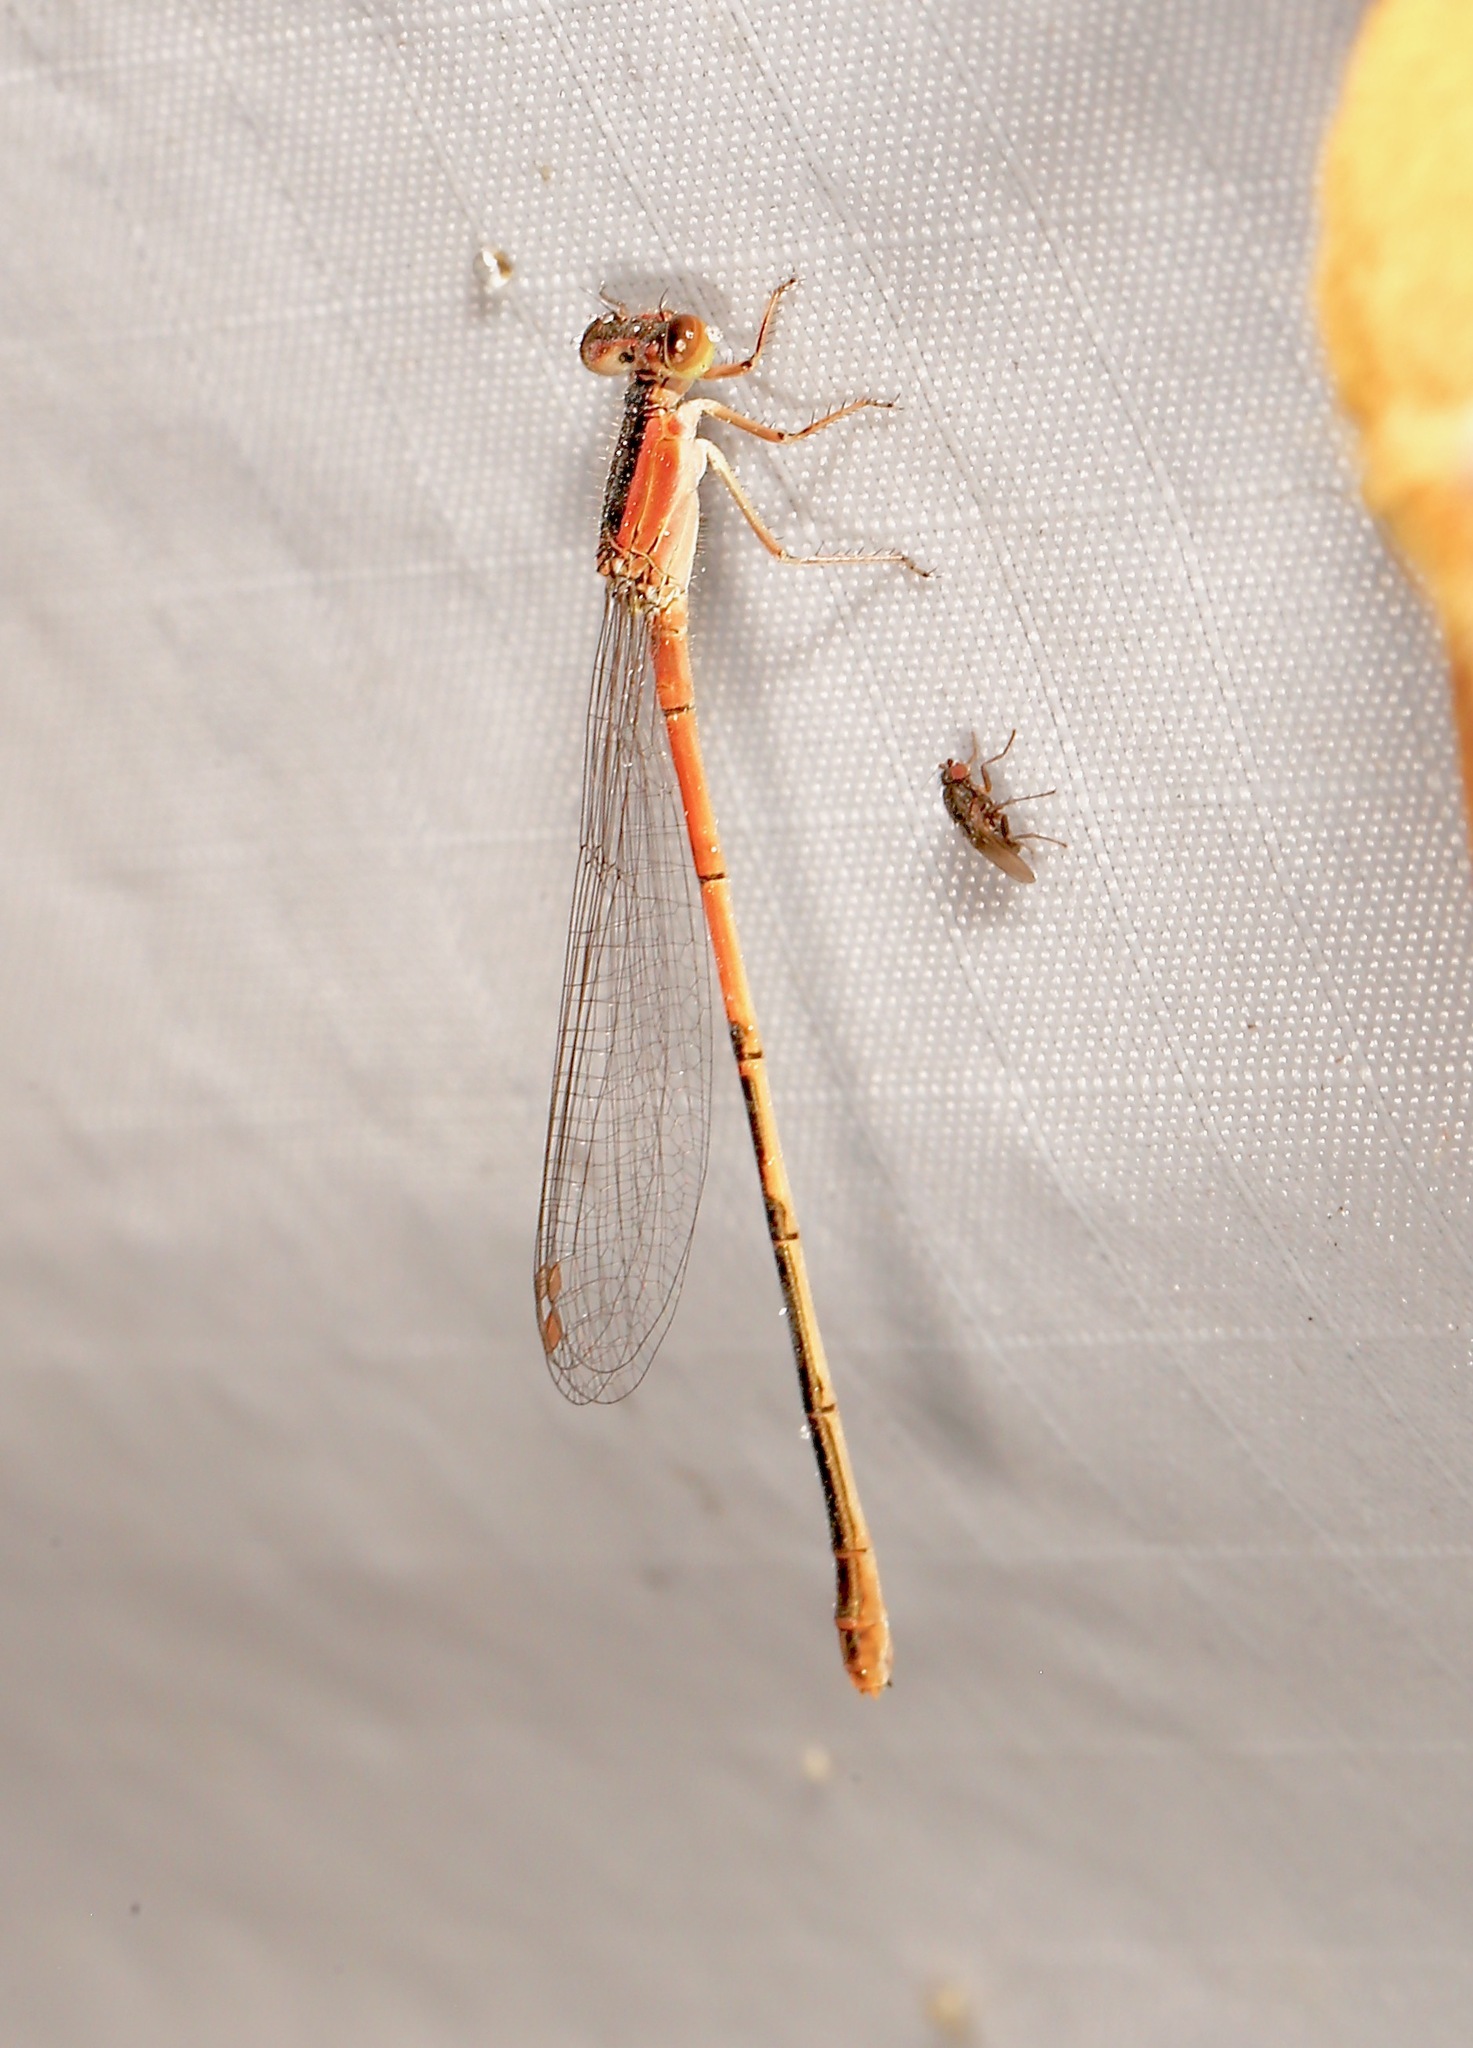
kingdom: Animalia
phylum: Arthropoda
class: Insecta
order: Odonata
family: Coenagrionidae
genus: Ischnura
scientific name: Ischnura hastata
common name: Citrine forktail
